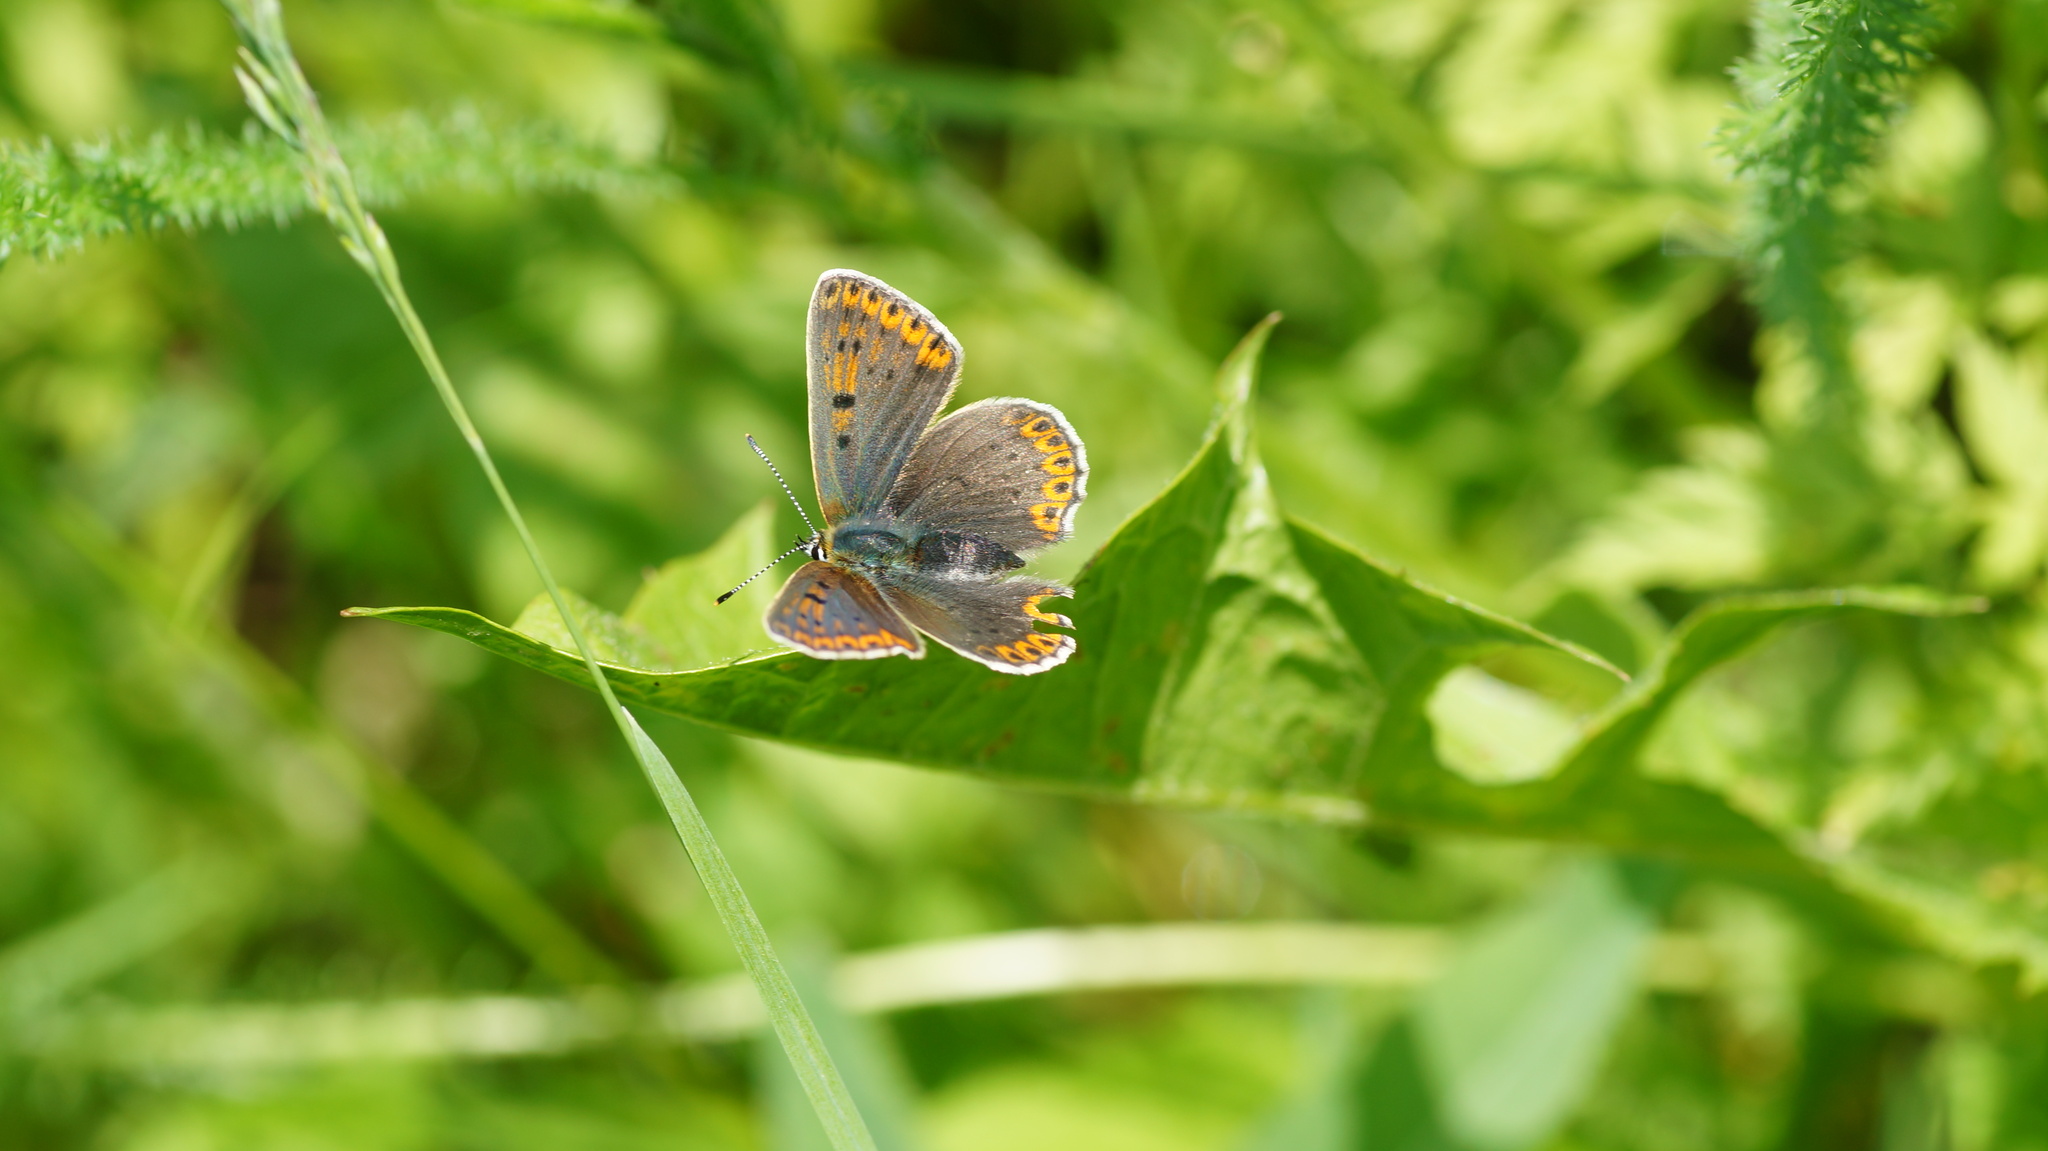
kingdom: Animalia
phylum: Arthropoda
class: Insecta
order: Lepidoptera
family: Lycaenidae
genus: Loweia
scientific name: Loweia tityrus
